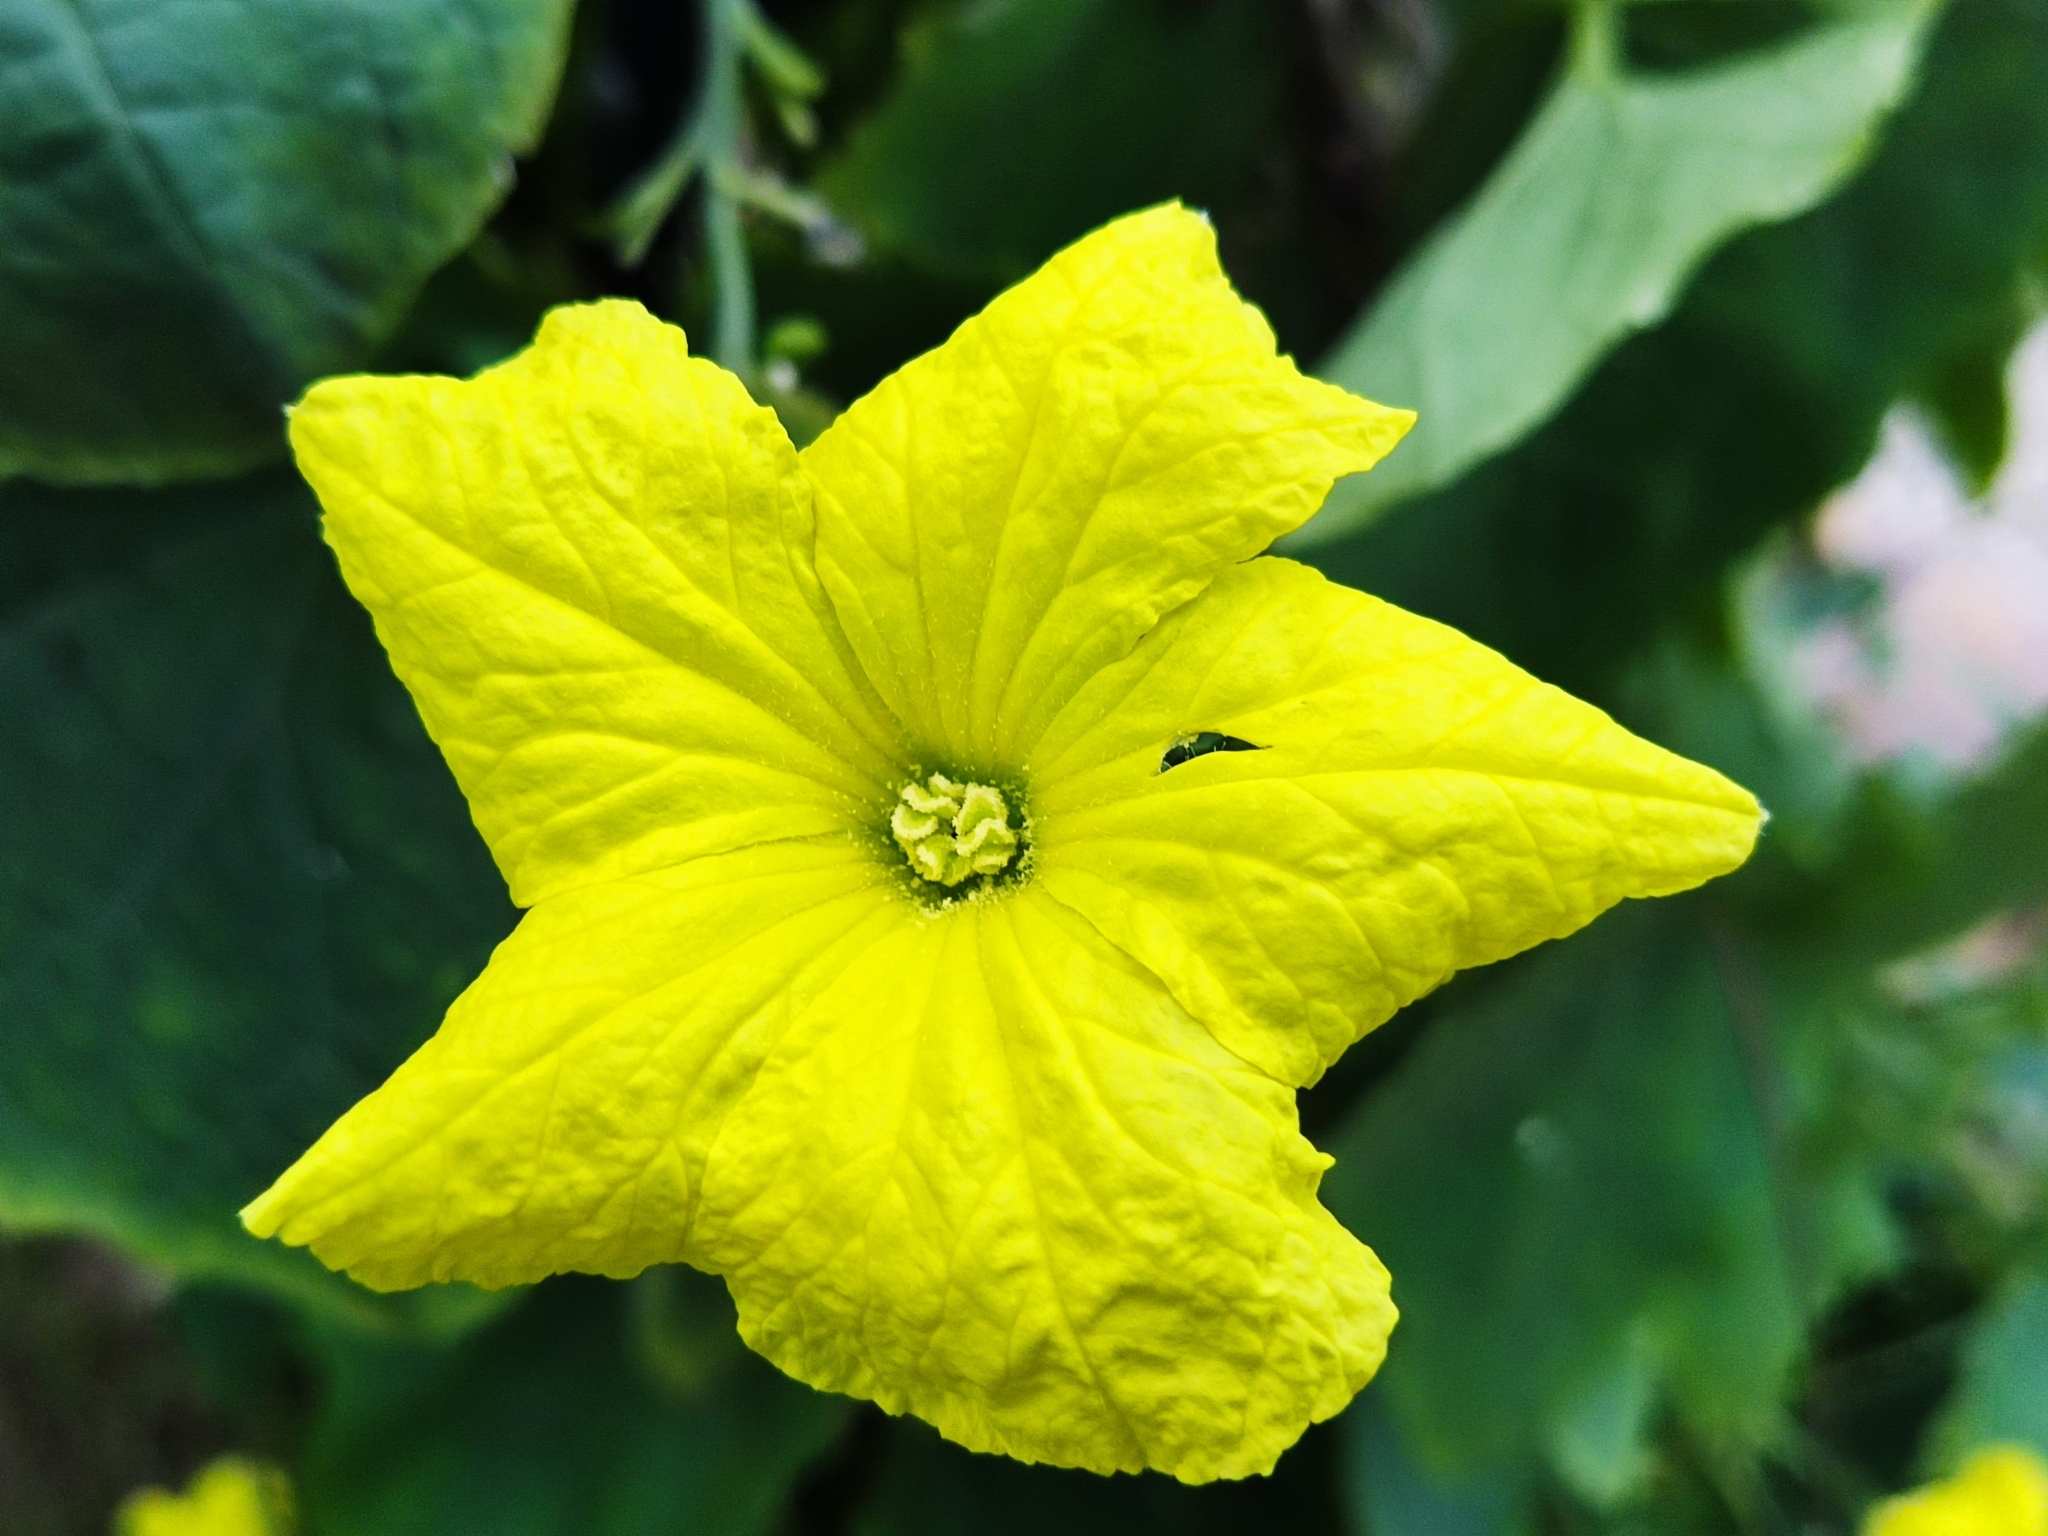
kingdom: Plantae
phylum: Tracheophyta
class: Magnoliopsida
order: Cucurbitales
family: Cucurbitaceae
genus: Cucumis
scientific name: Cucumis melo
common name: Melon
